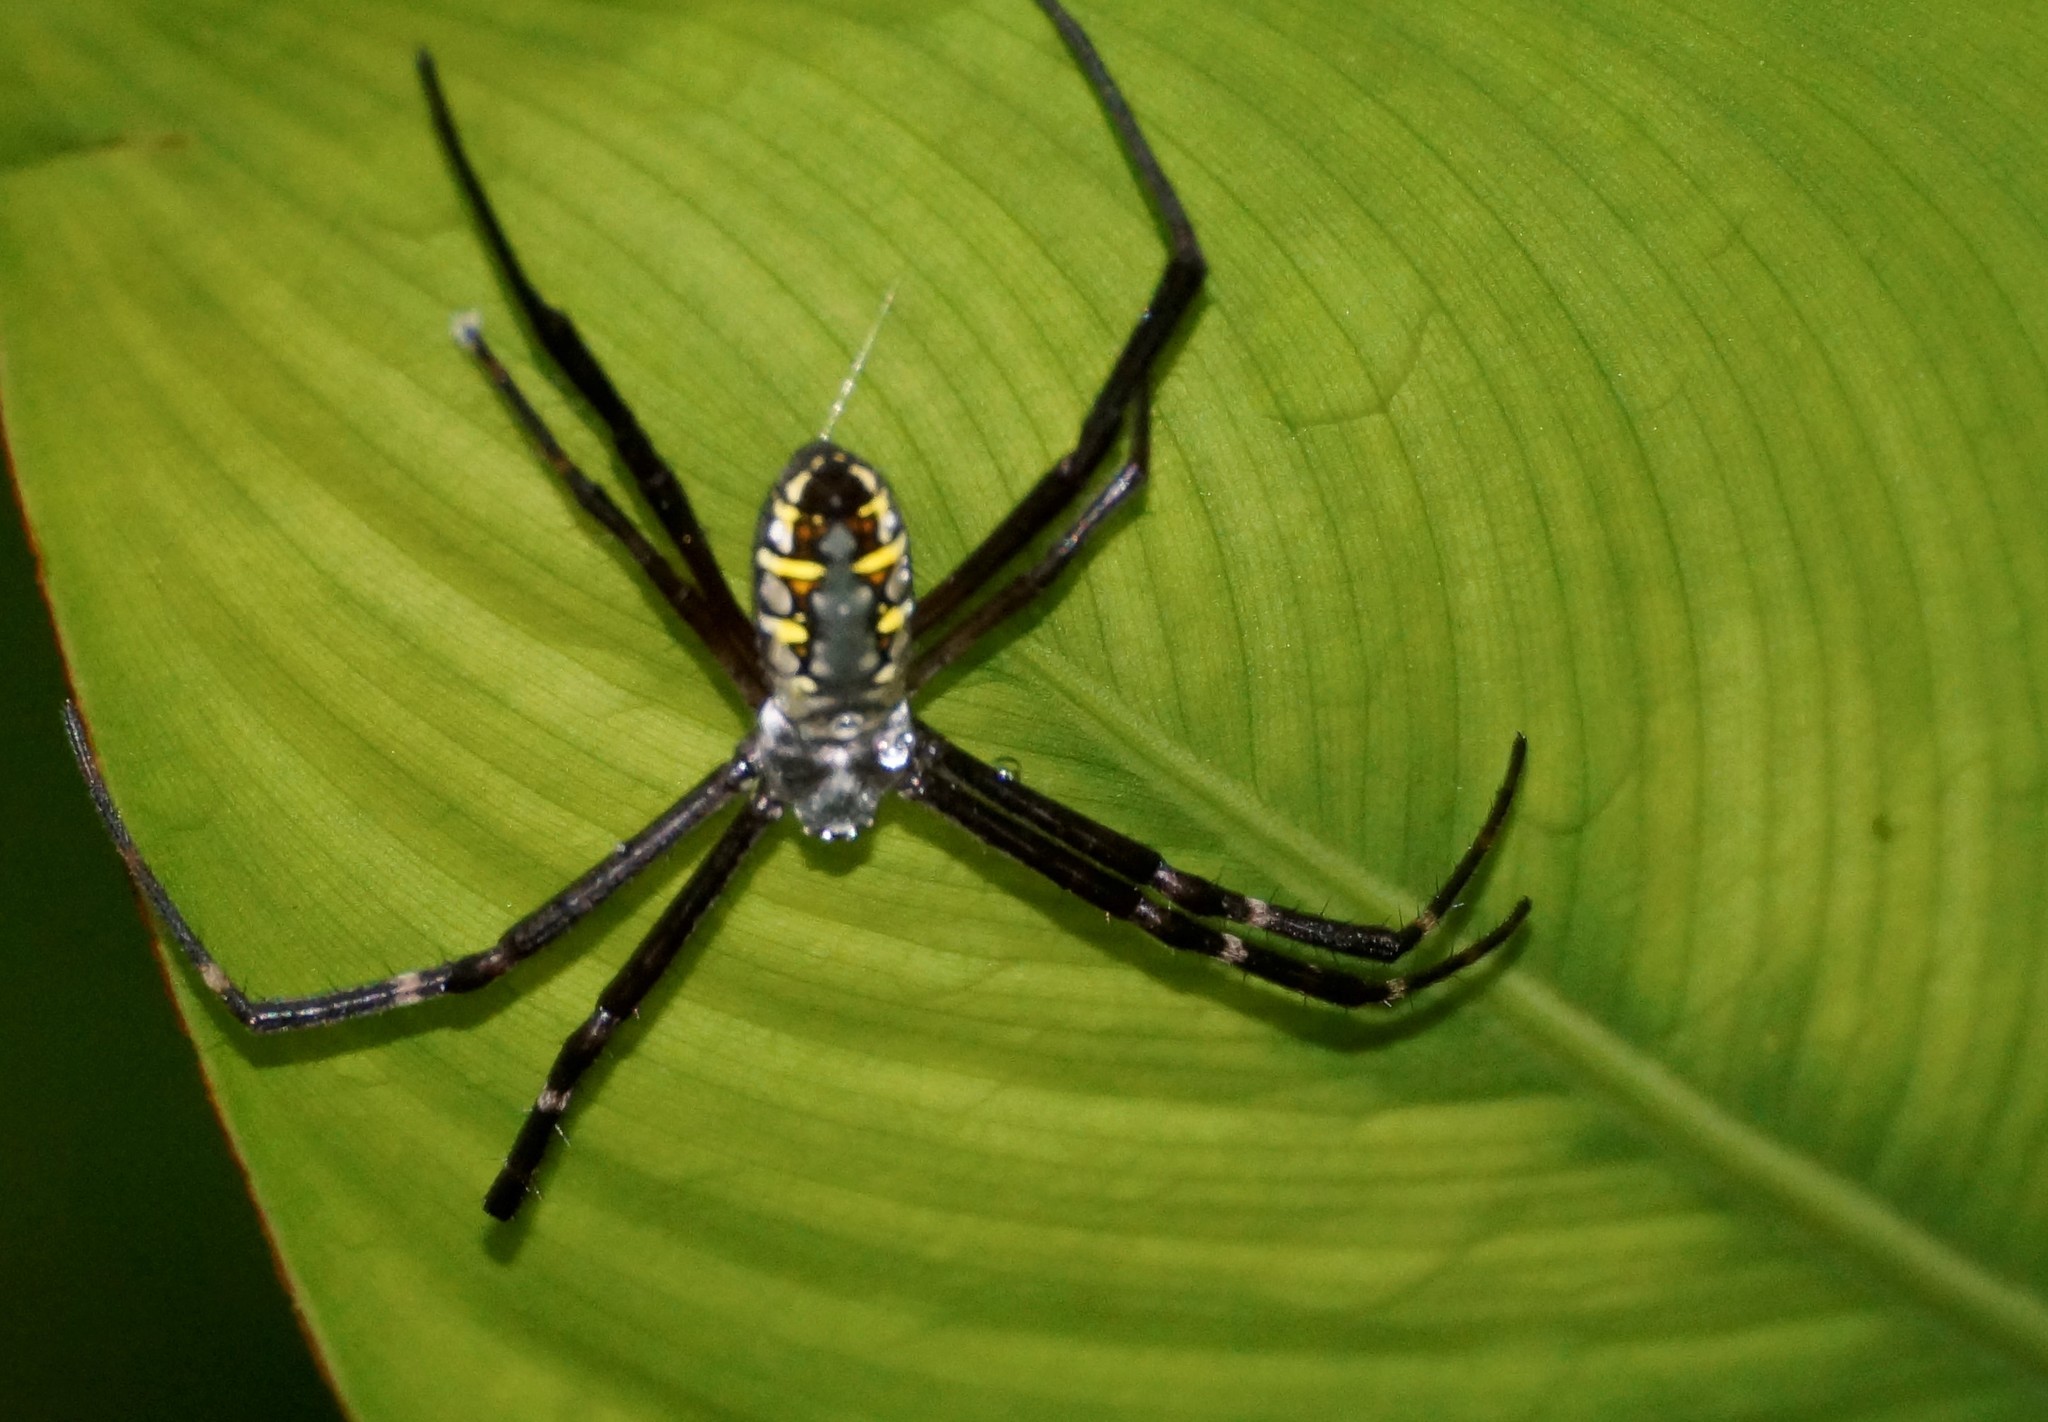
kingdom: Animalia
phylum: Arthropoda
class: Arachnida
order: Araneae
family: Araneidae
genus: Argiope
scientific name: Argiope catenulata
